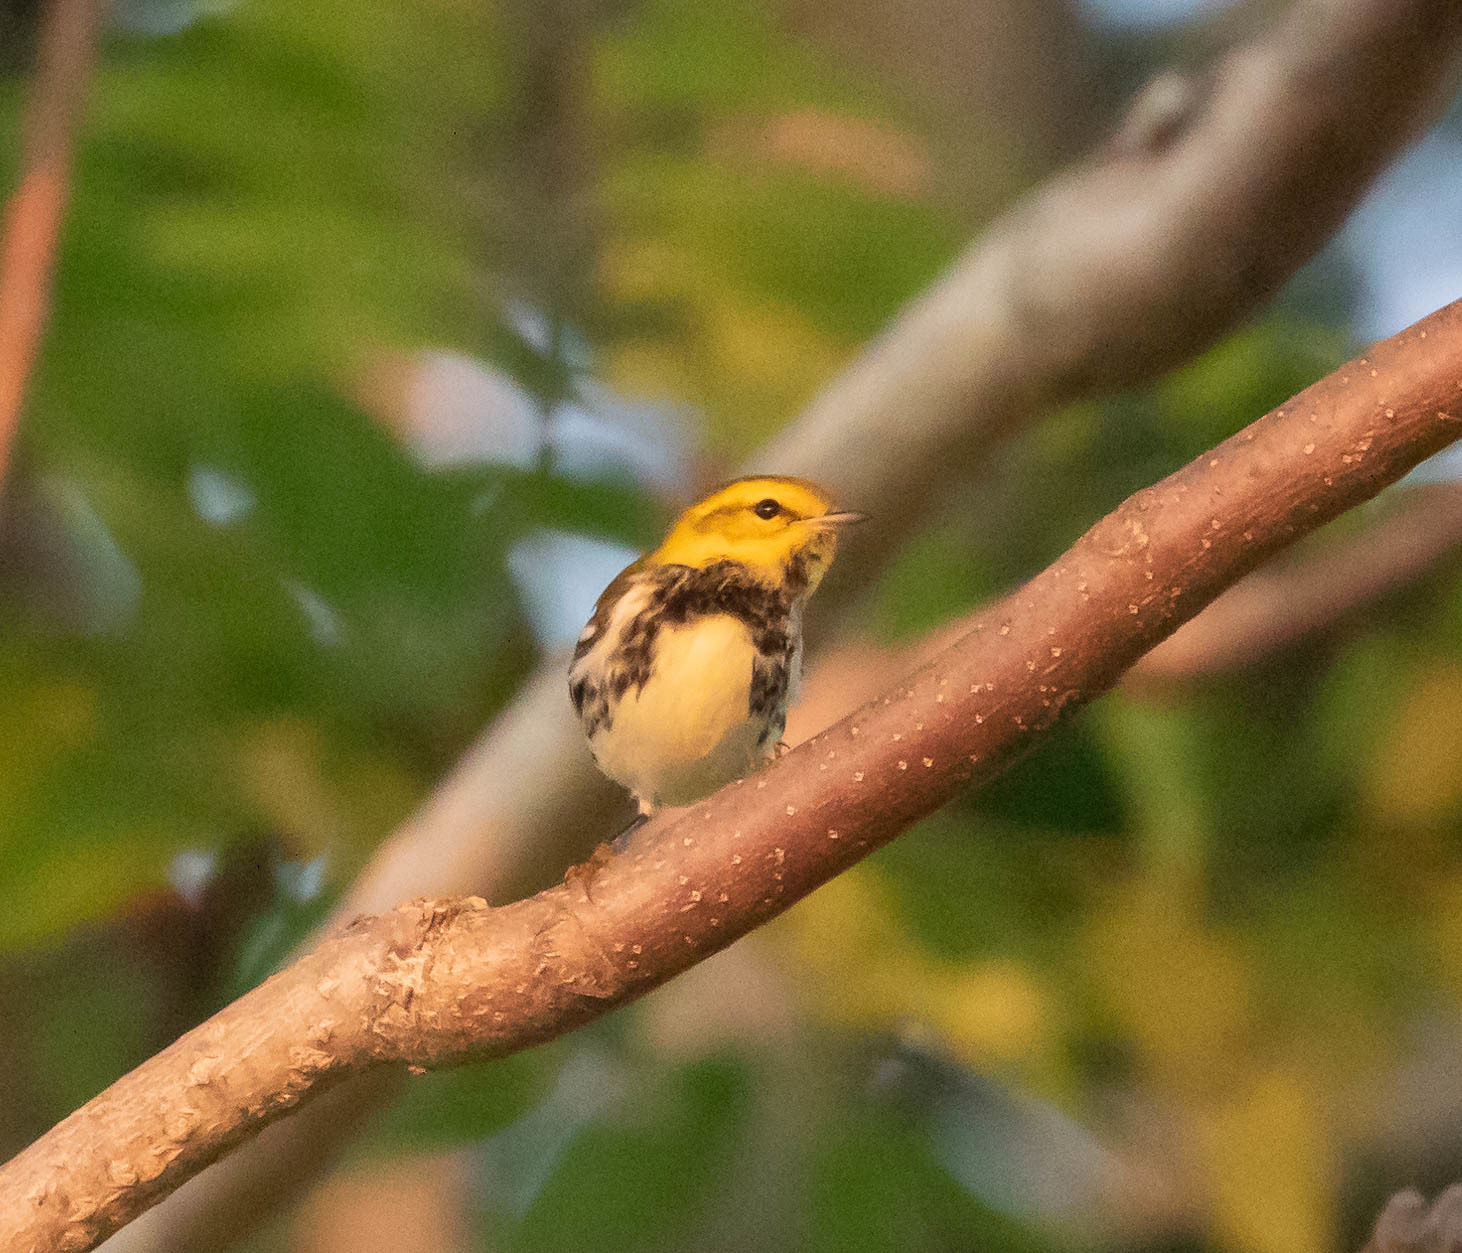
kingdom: Animalia
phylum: Chordata
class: Aves
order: Passeriformes
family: Parulidae
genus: Setophaga
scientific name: Setophaga virens
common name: Black-throated green warbler
